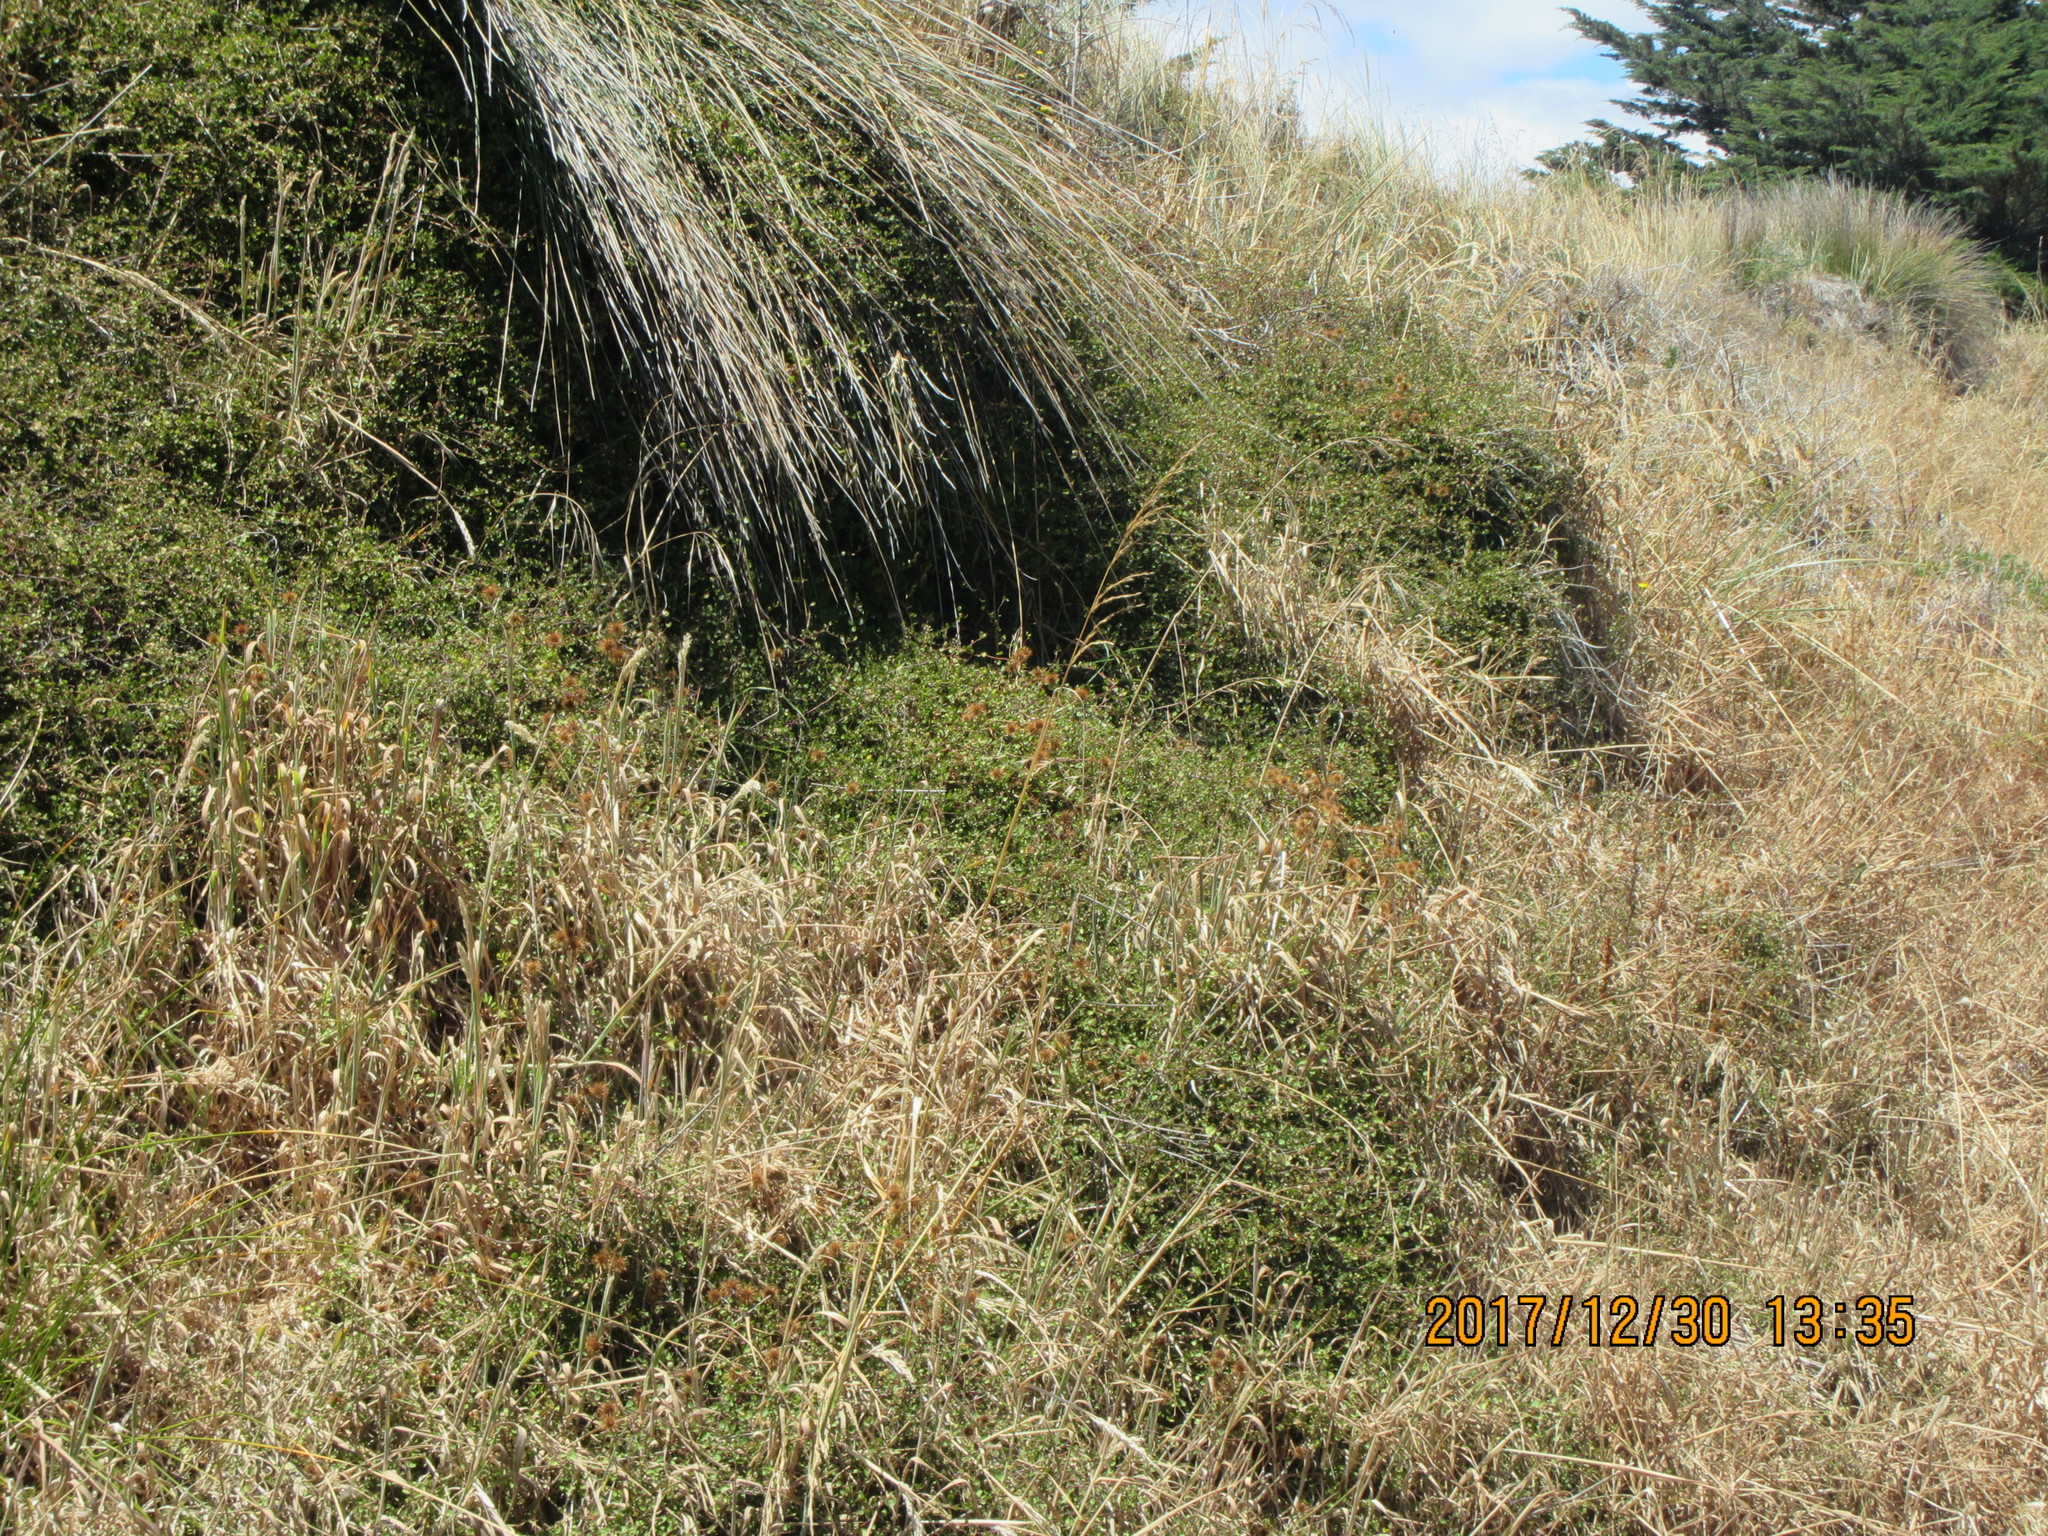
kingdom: Plantae
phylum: Tracheophyta
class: Magnoliopsida
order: Caryophyllales
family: Polygonaceae
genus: Muehlenbeckia
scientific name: Muehlenbeckia complexa
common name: Wireplant
